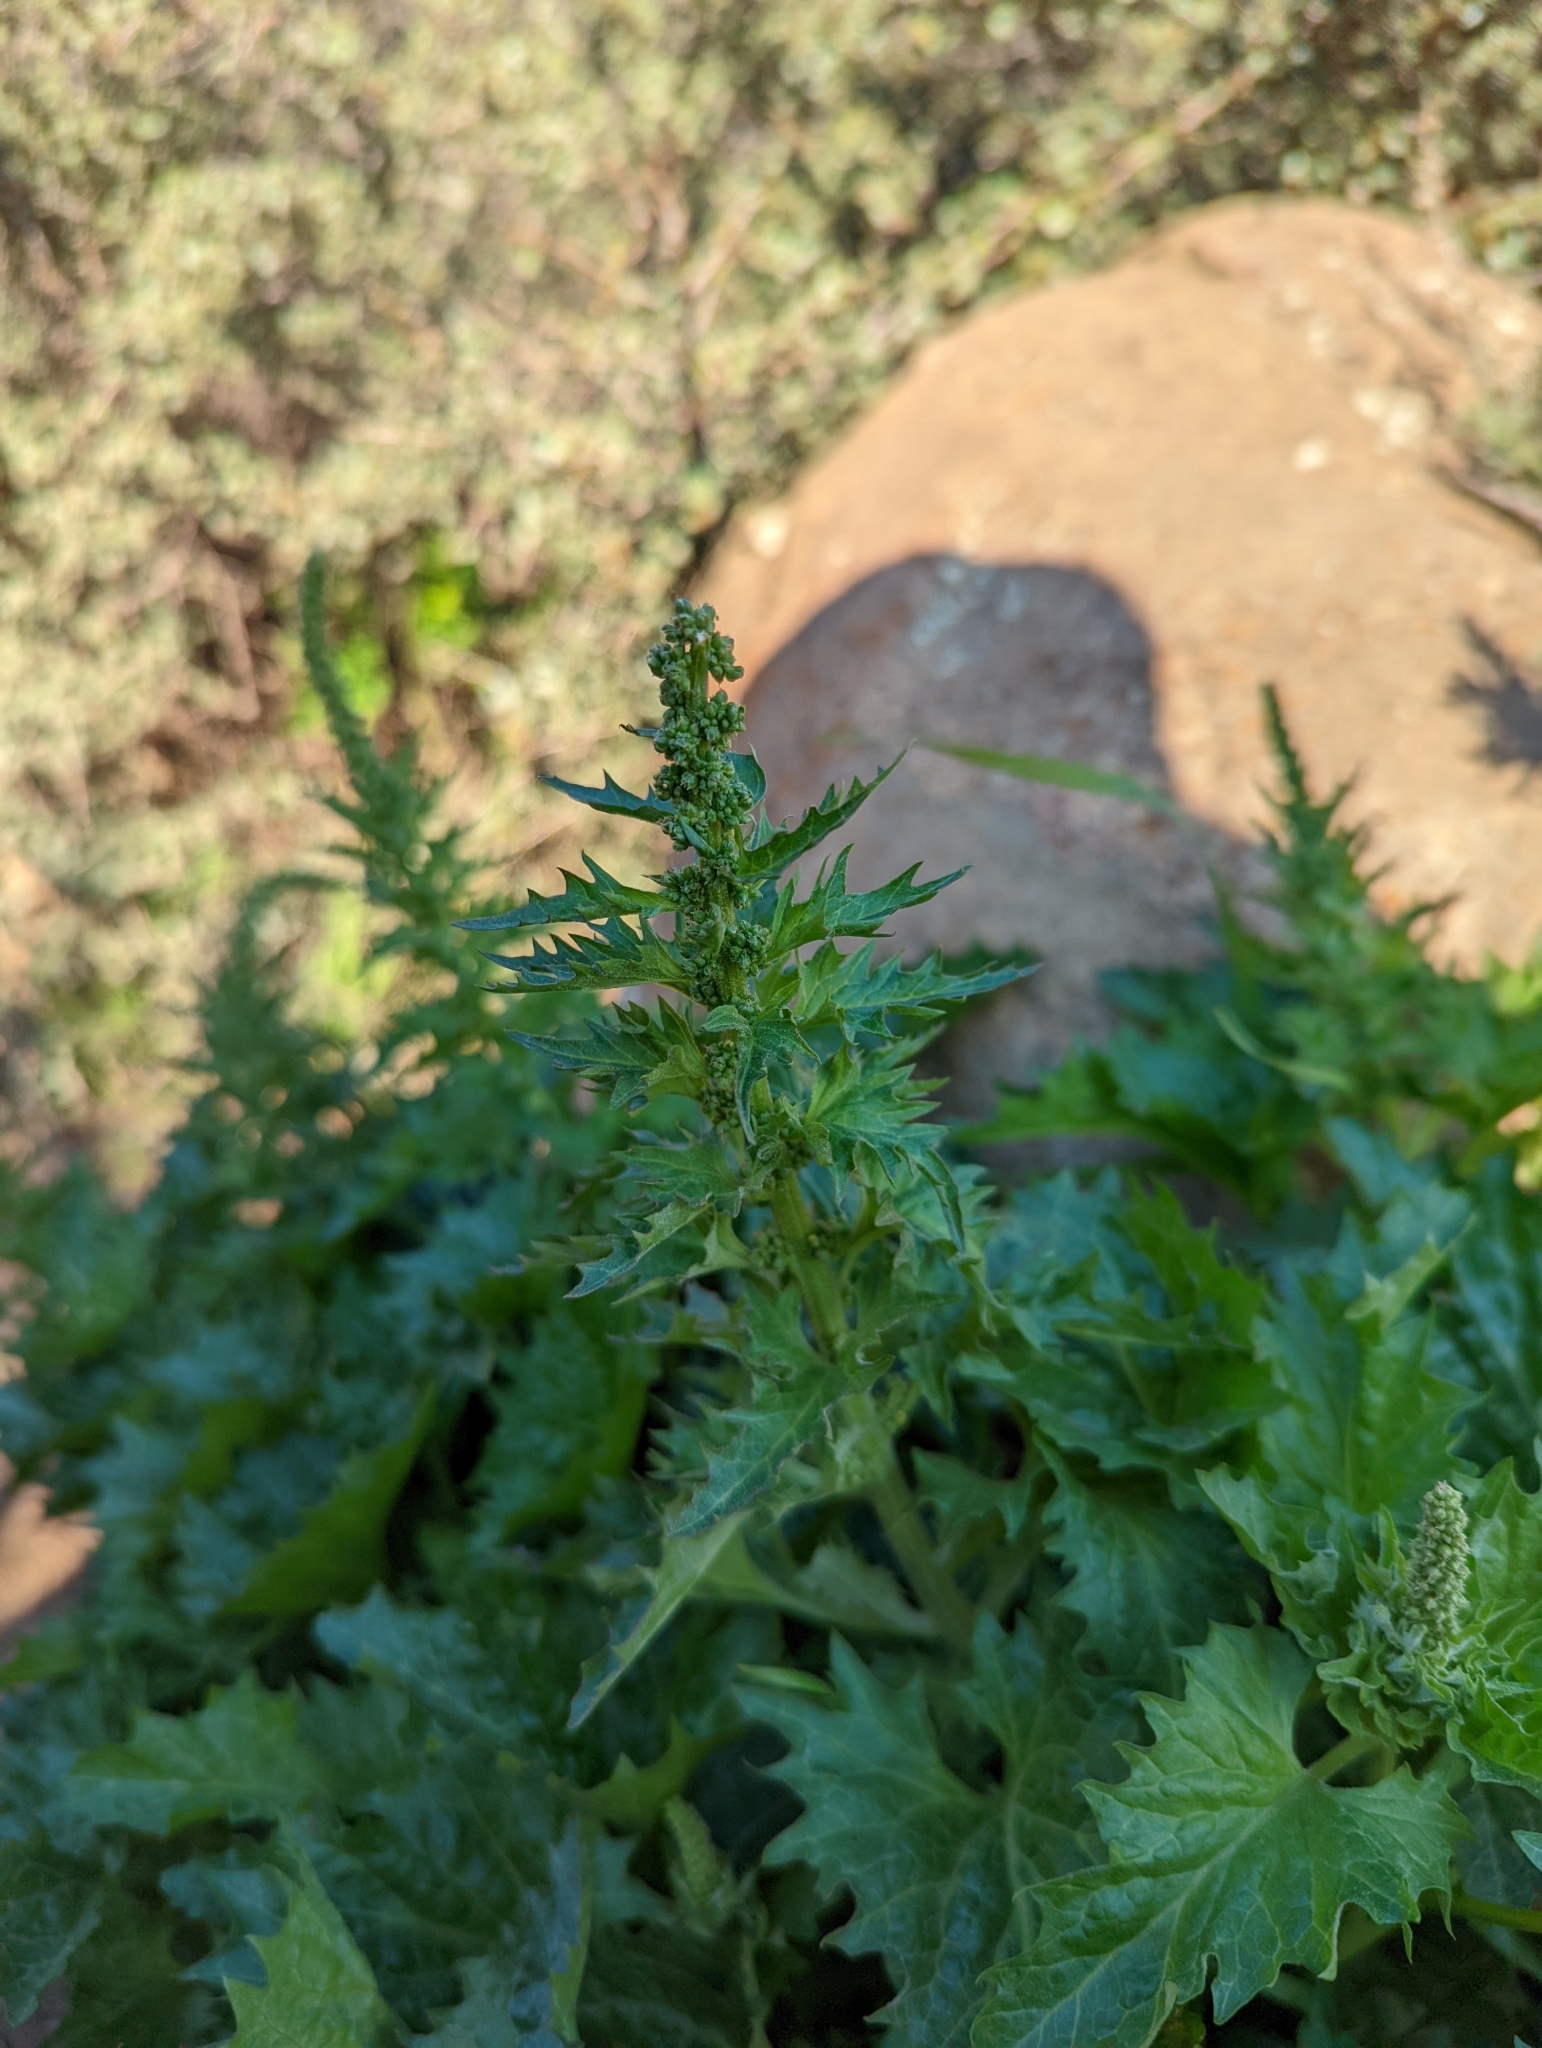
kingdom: Plantae
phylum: Tracheophyta
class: Magnoliopsida
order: Caryophyllales
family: Amaranthaceae
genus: Blitum
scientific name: Blitum californicum
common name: California goosefoot
